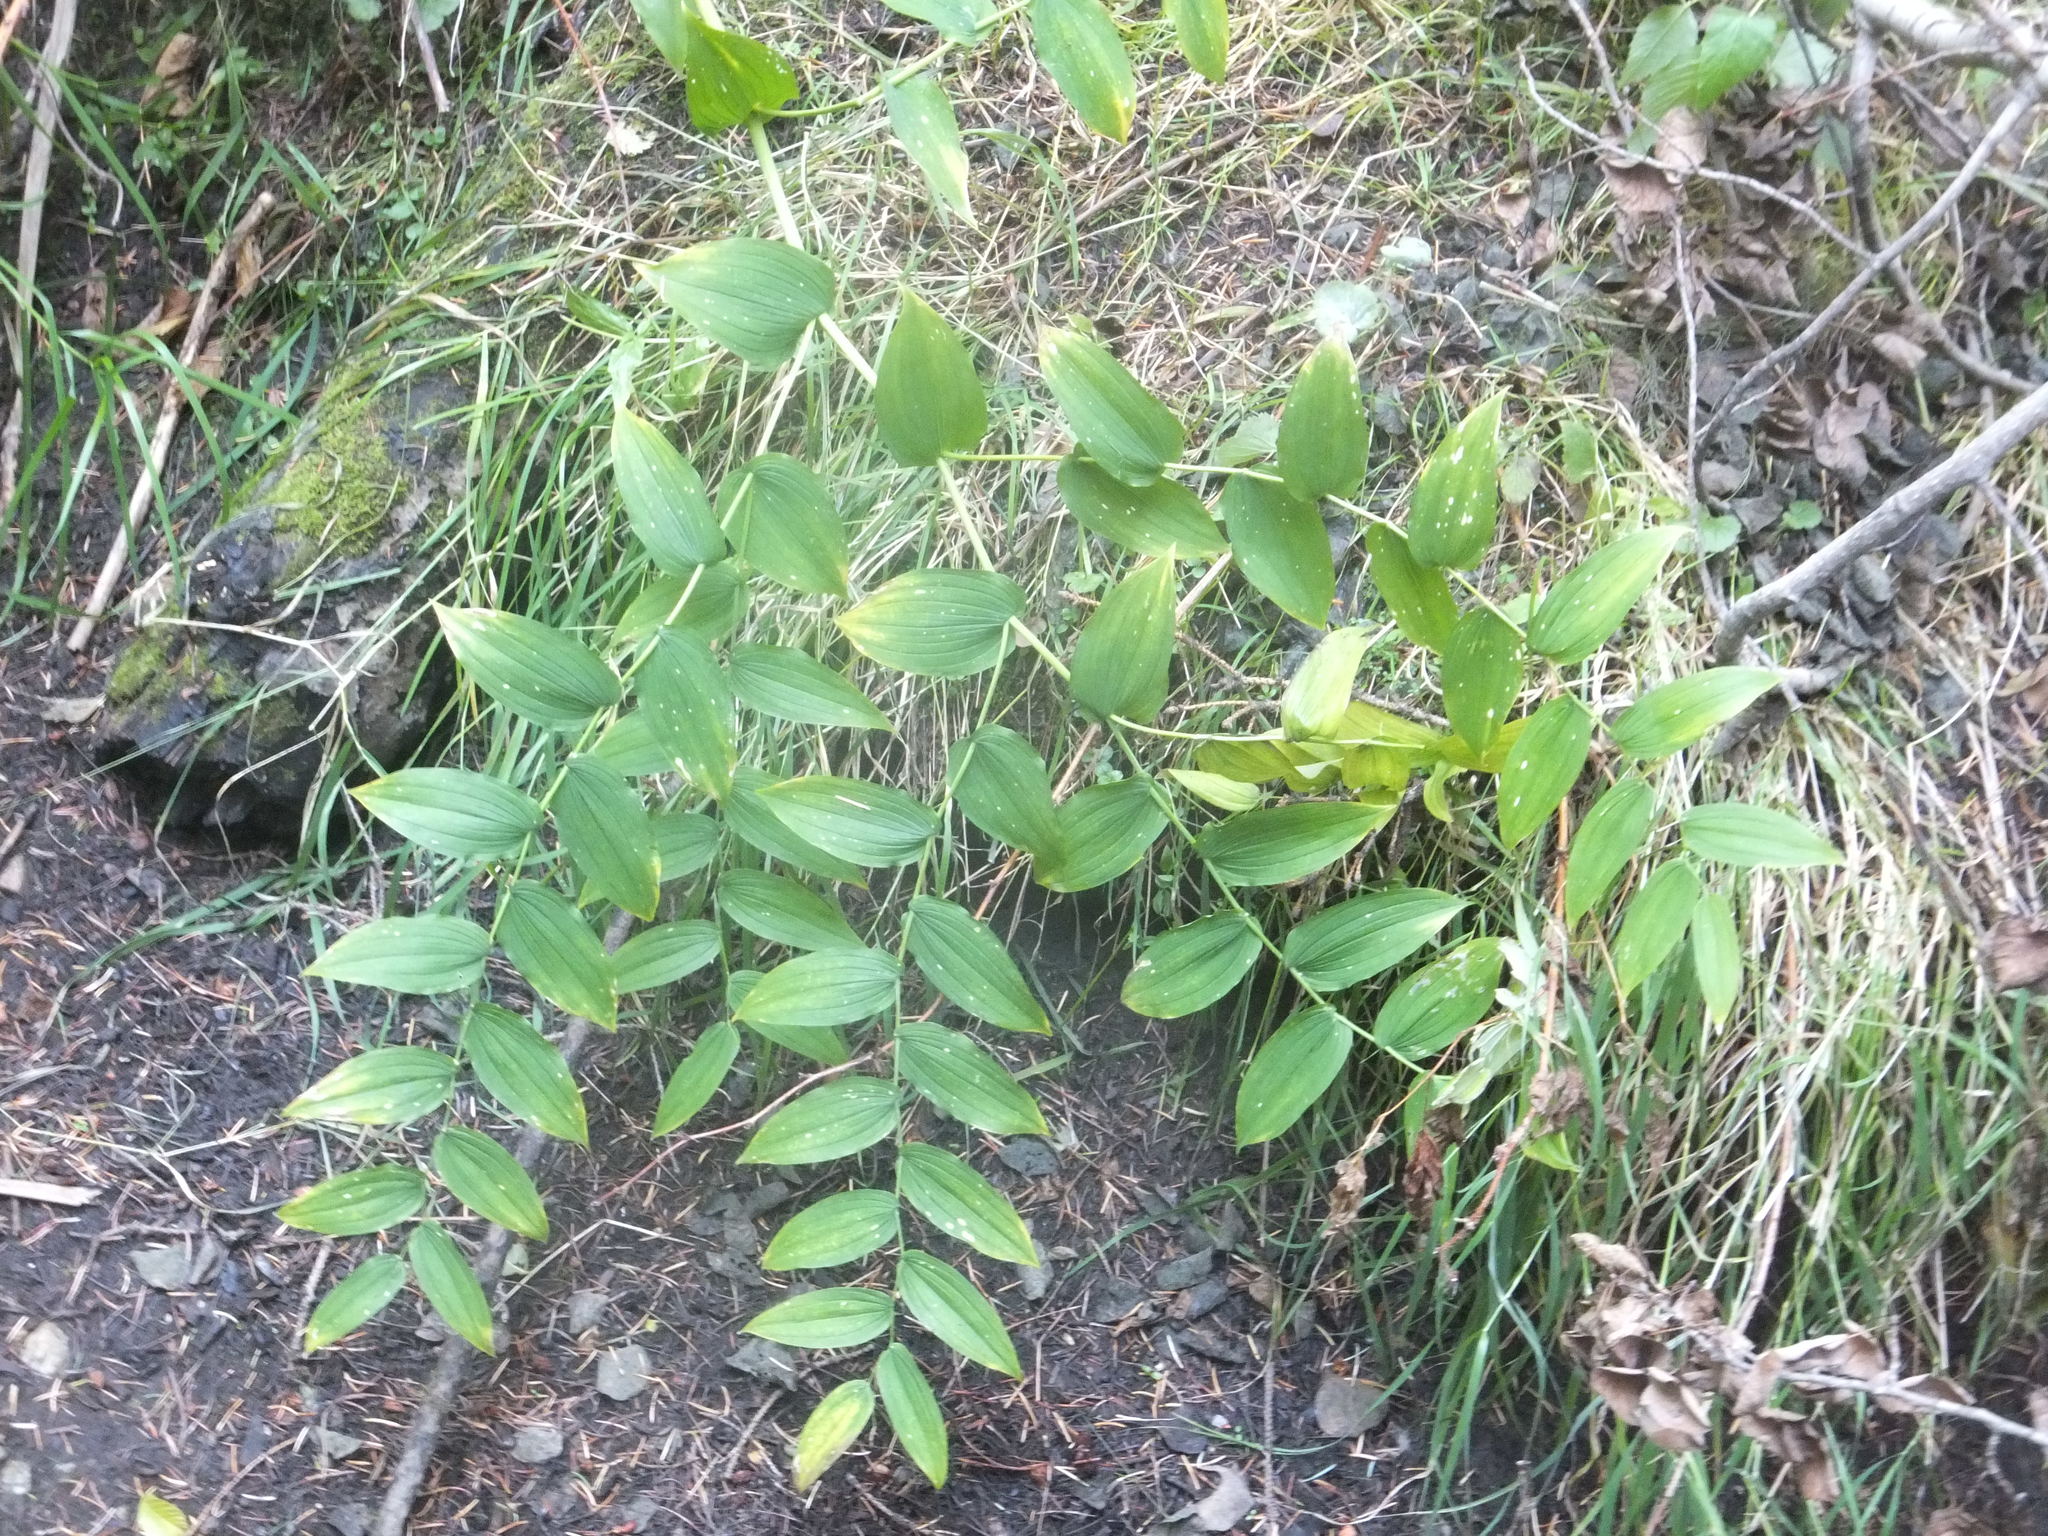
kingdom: Plantae
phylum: Tracheophyta
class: Liliopsida
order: Liliales
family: Liliaceae
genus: Streptopus
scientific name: Streptopus amplexifolius
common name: Clasp twisted stalk
